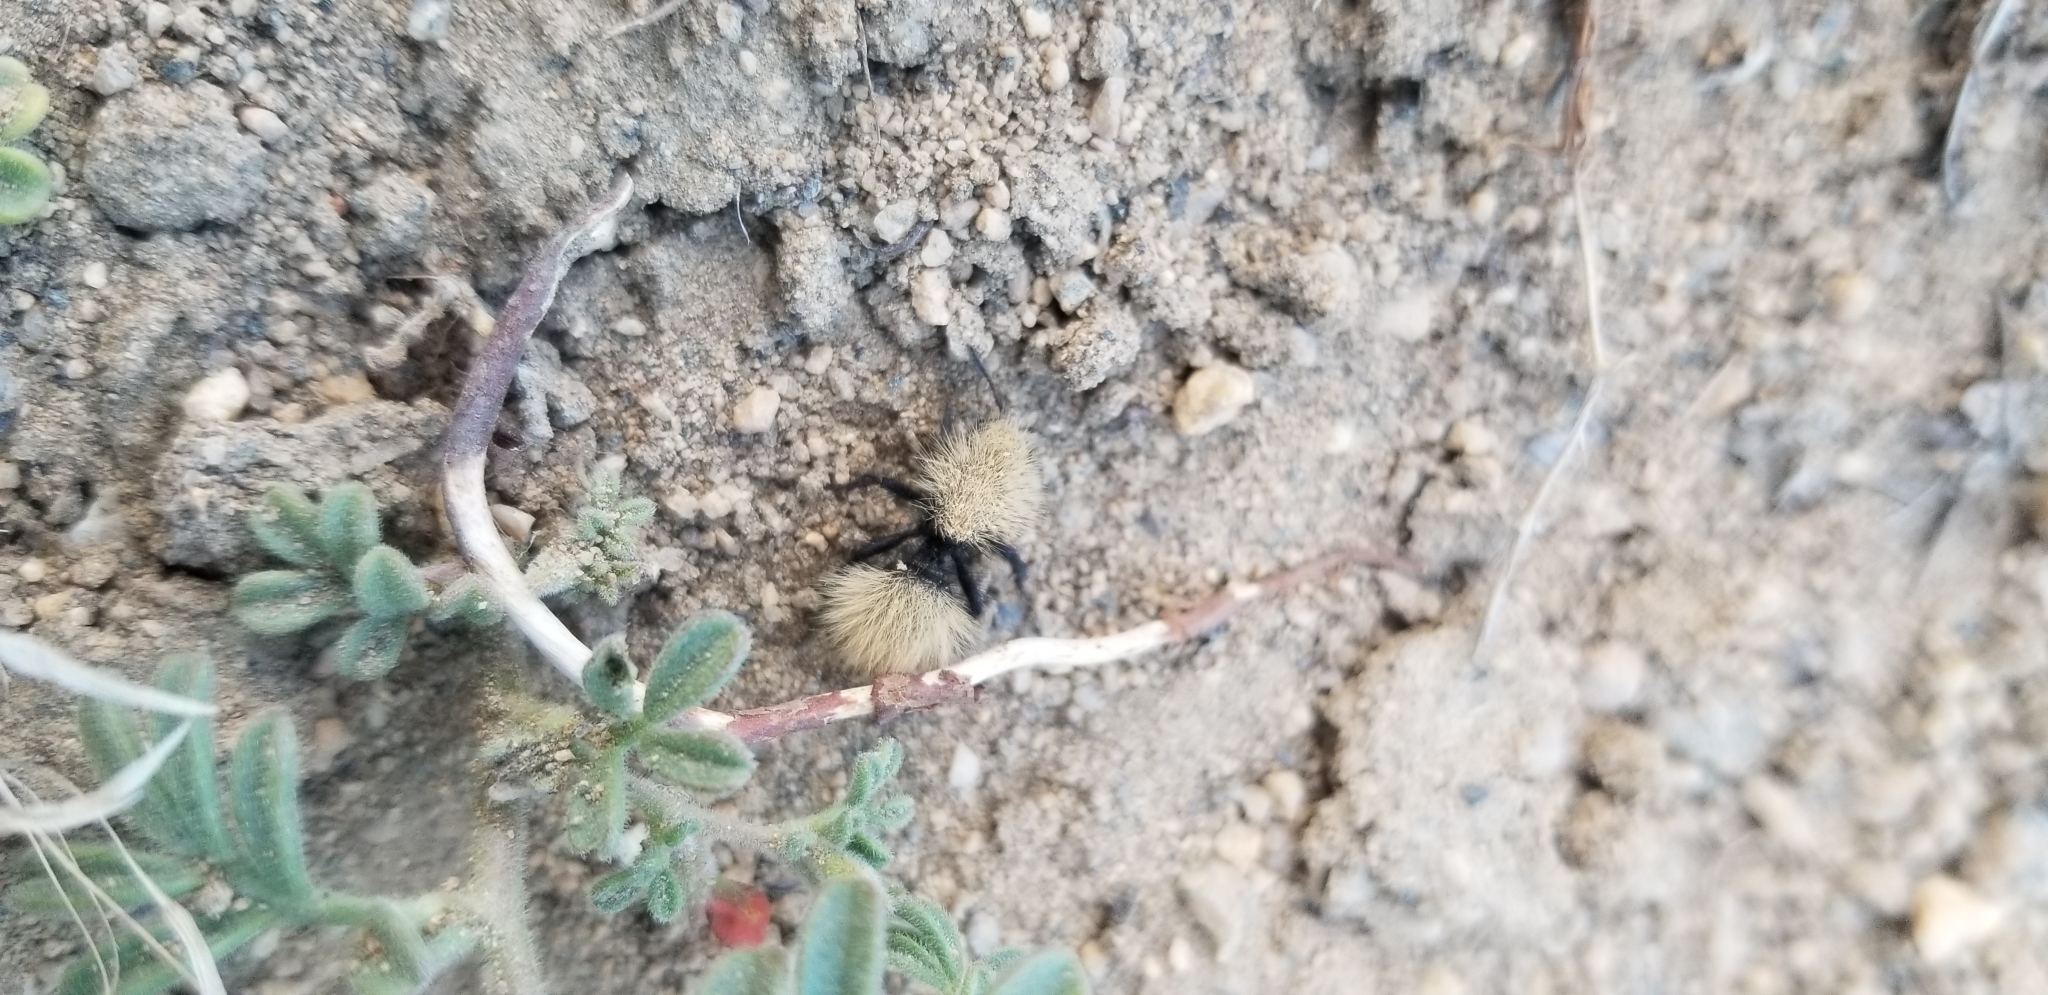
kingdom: Animalia
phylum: Arthropoda
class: Insecta
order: Hymenoptera
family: Mutillidae
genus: Dasymutilla
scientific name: Dasymutilla
